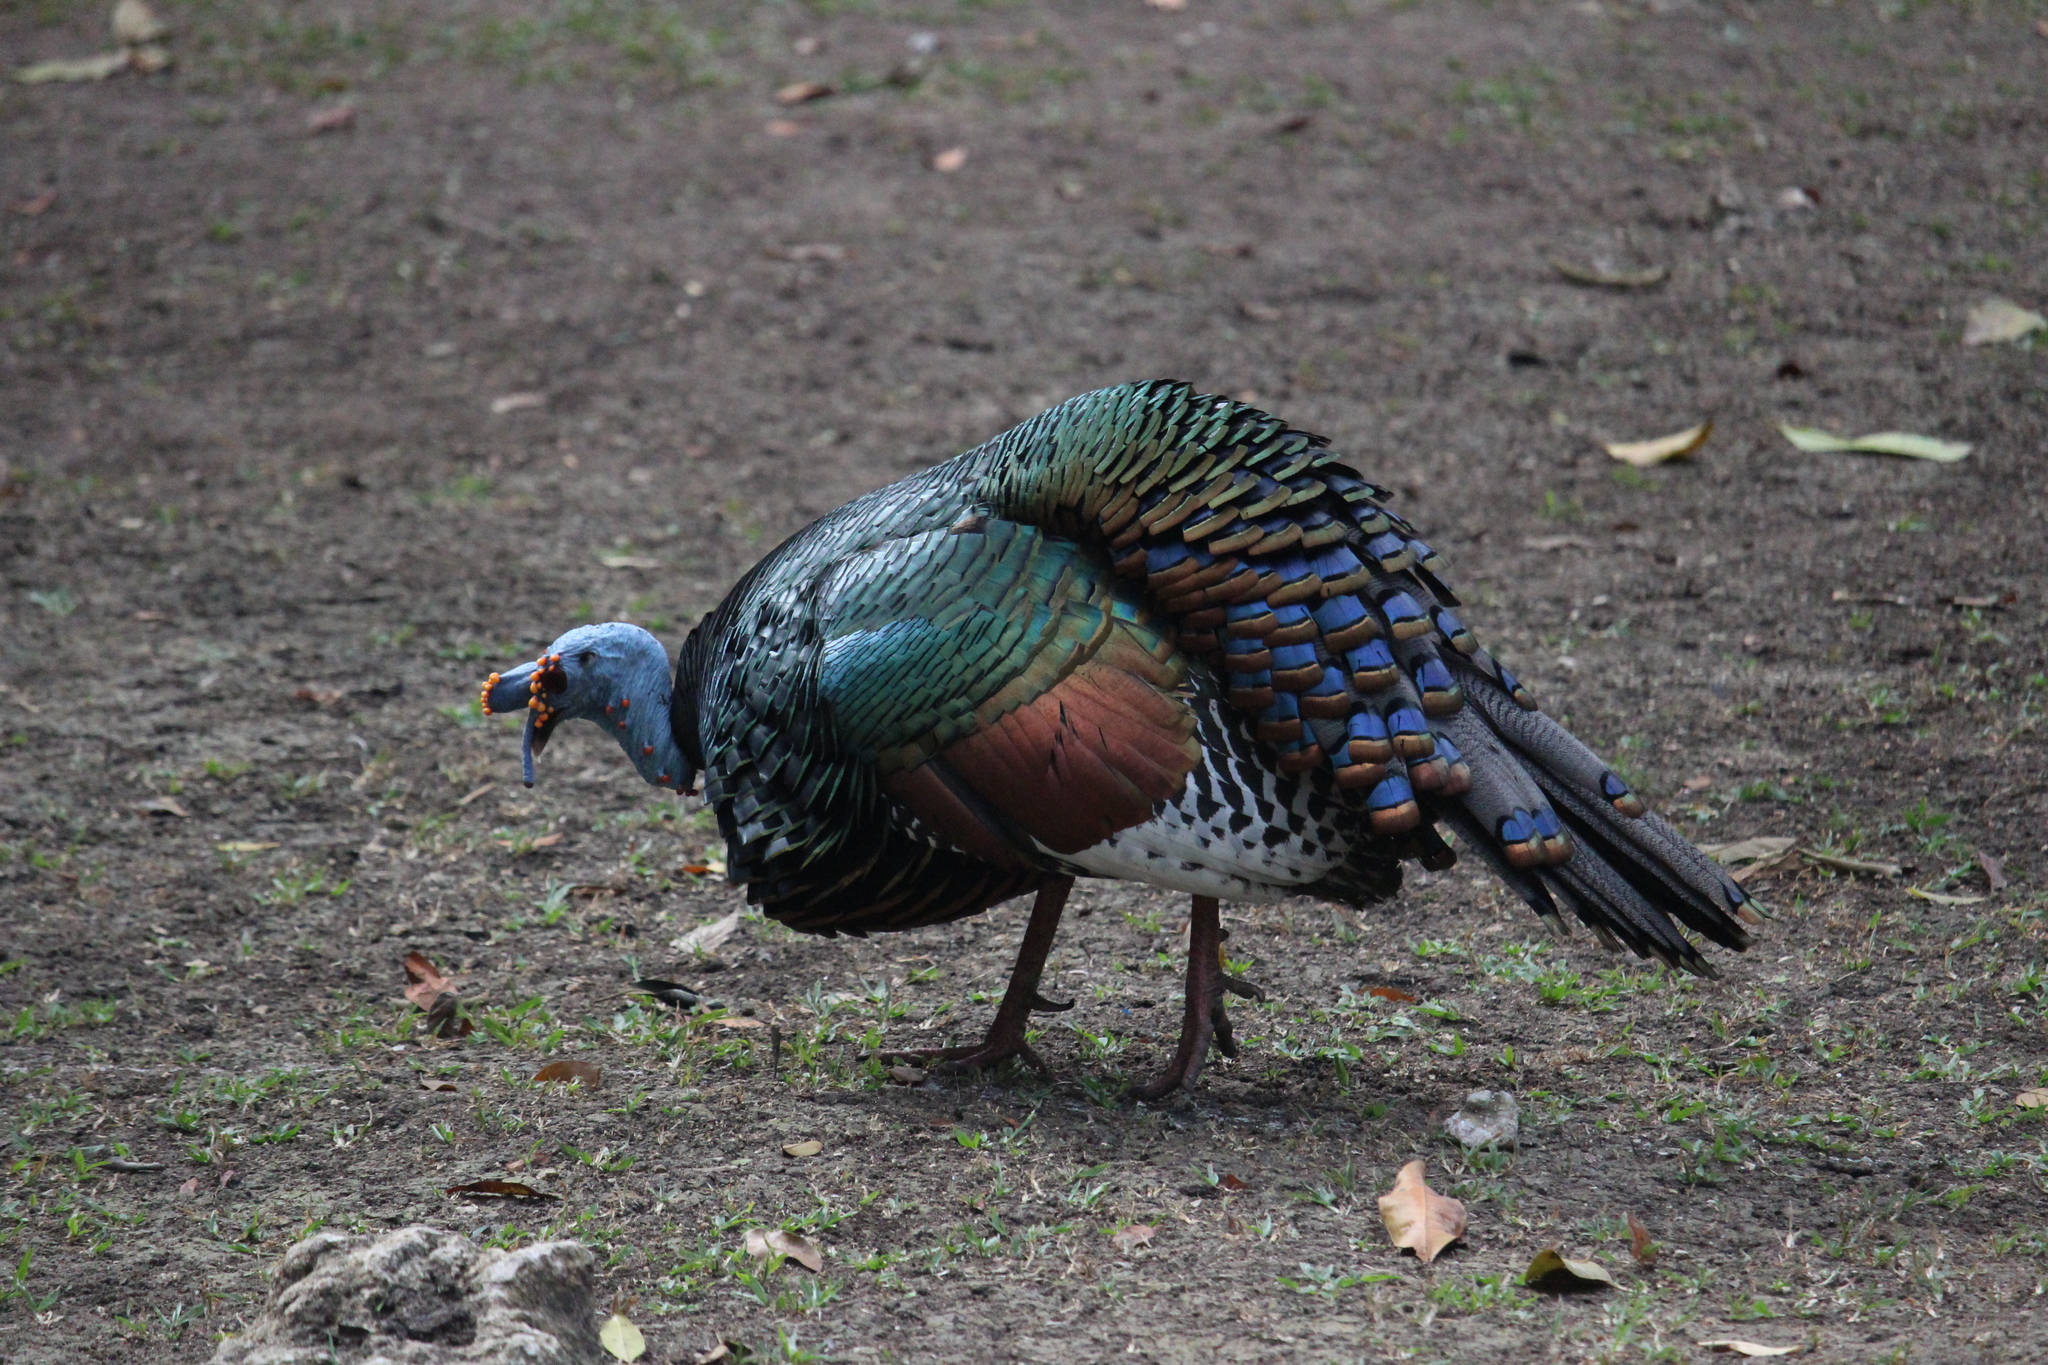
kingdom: Animalia
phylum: Chordata
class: Aves
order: Galliformes
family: Phasianidae
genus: Meleagris
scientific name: Meleagris ocellata
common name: Ocellated turkey
